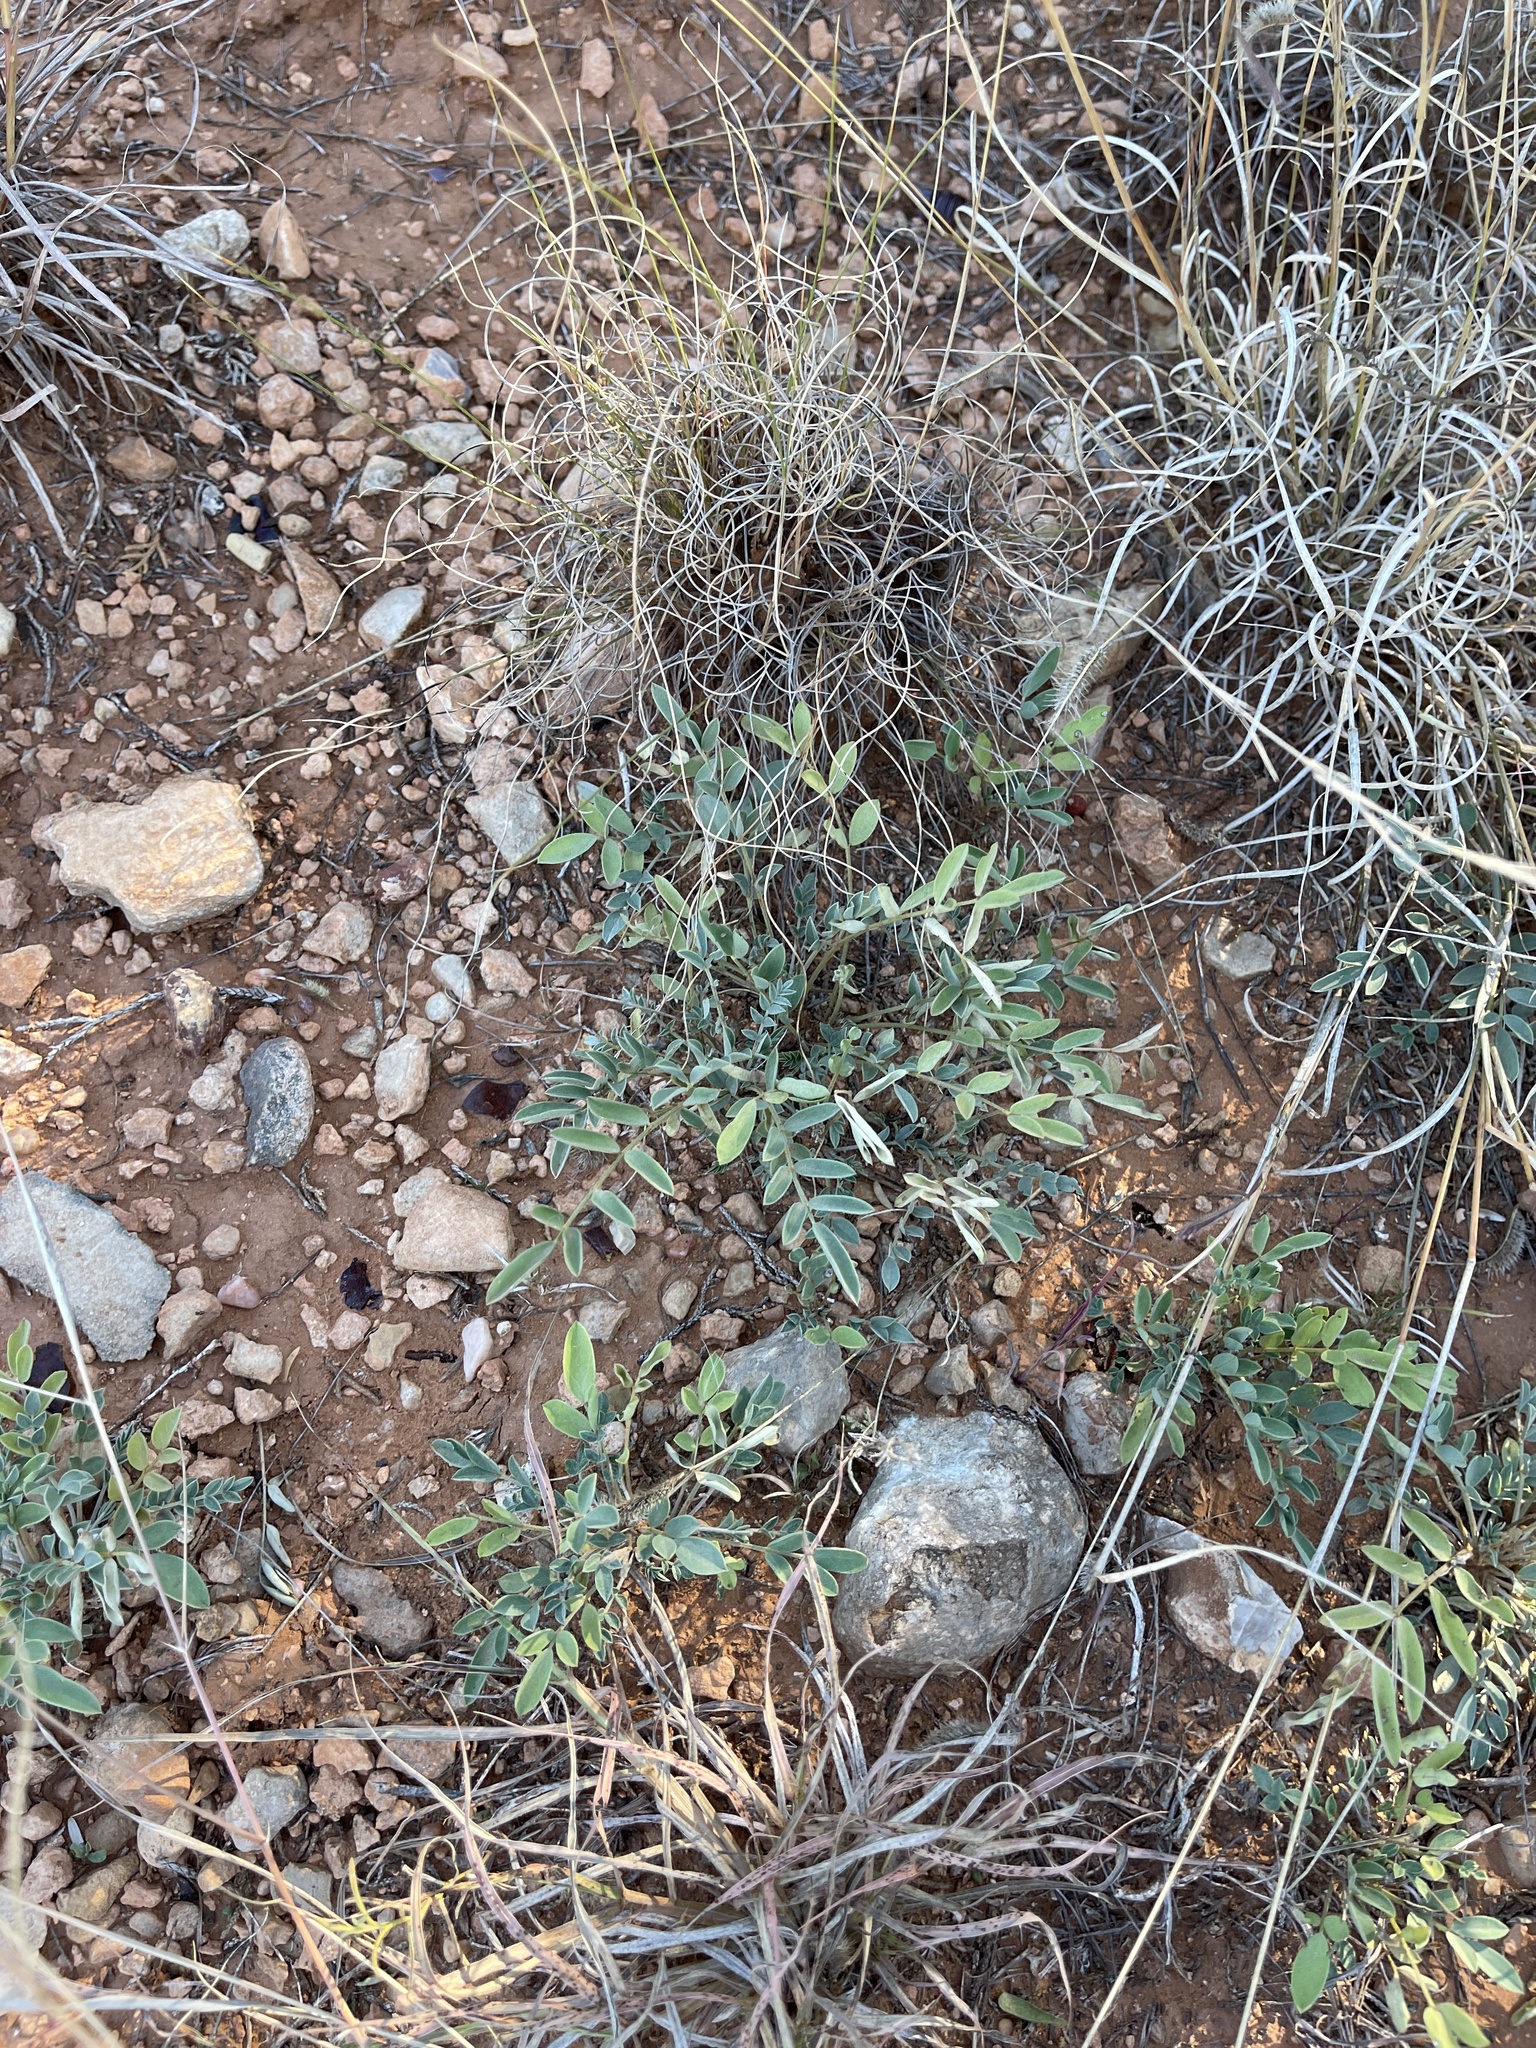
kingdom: Plantae
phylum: Tracheophyta
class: Magnoliopsida
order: Fabales
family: Fabaceae
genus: Astragalus
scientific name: Astragalus lotiflorus
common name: Lotus milk-vetch
